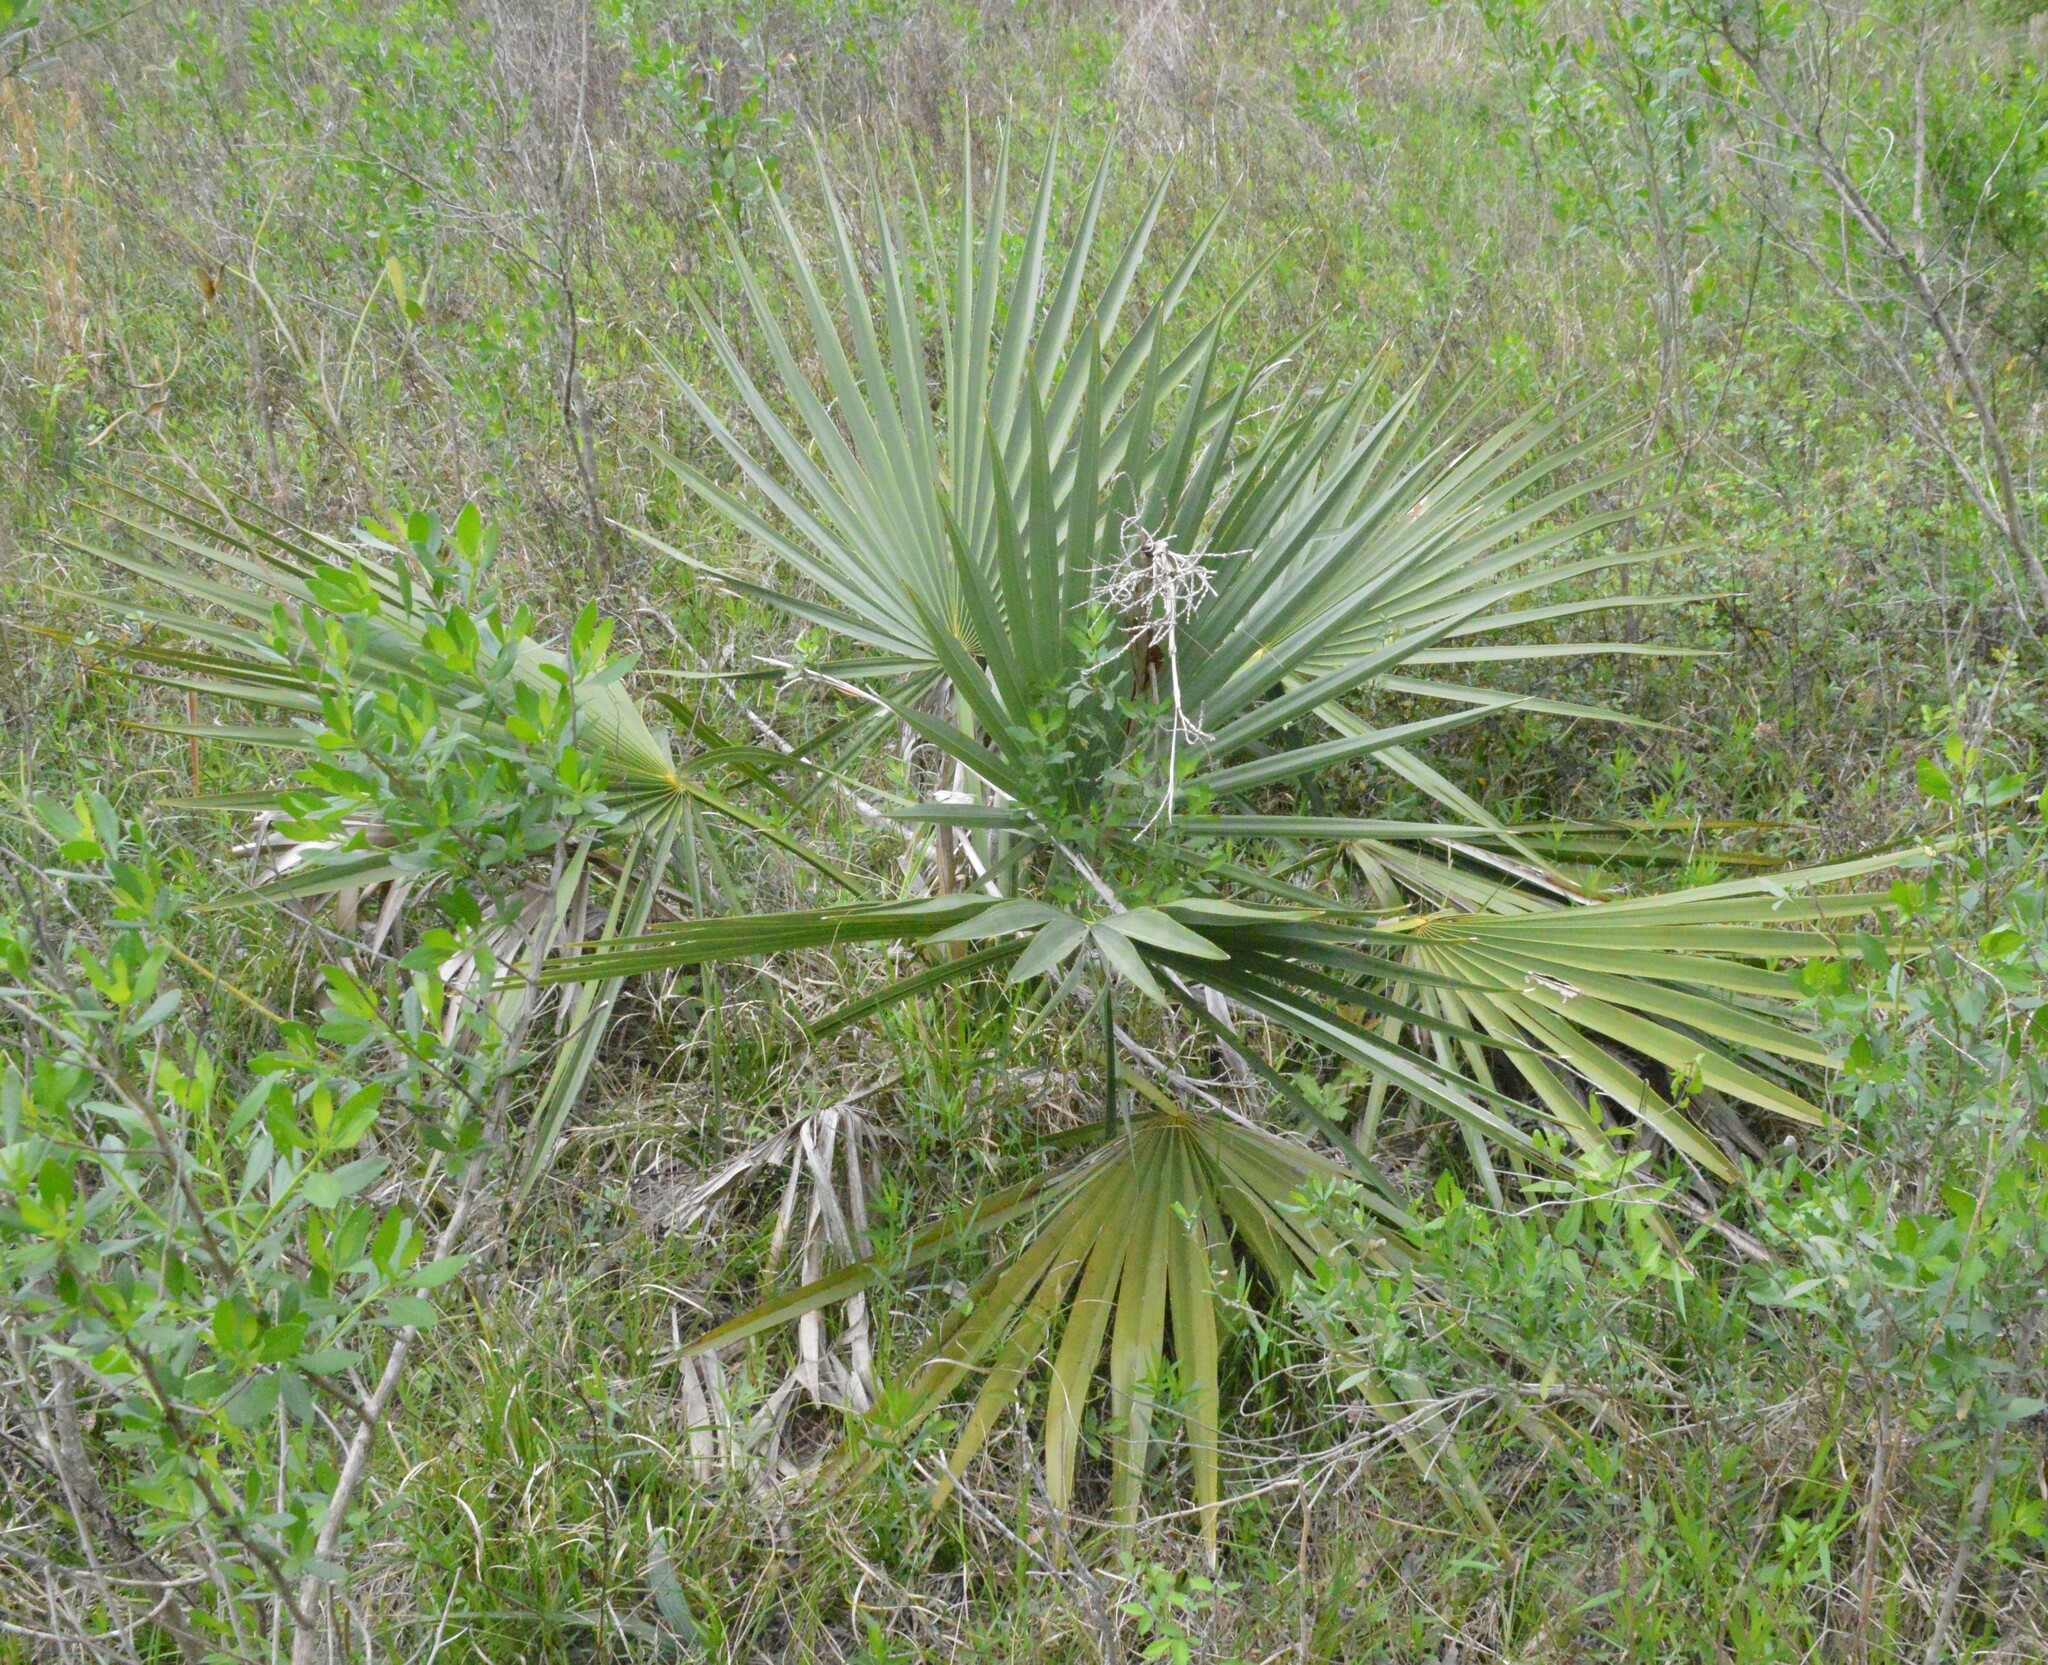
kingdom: Plantae
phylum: Tracheophyta
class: Liliopsida
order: Arecales
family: Arecaceae
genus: Sabal
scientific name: Sabal minor
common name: Dwarf palmetto
